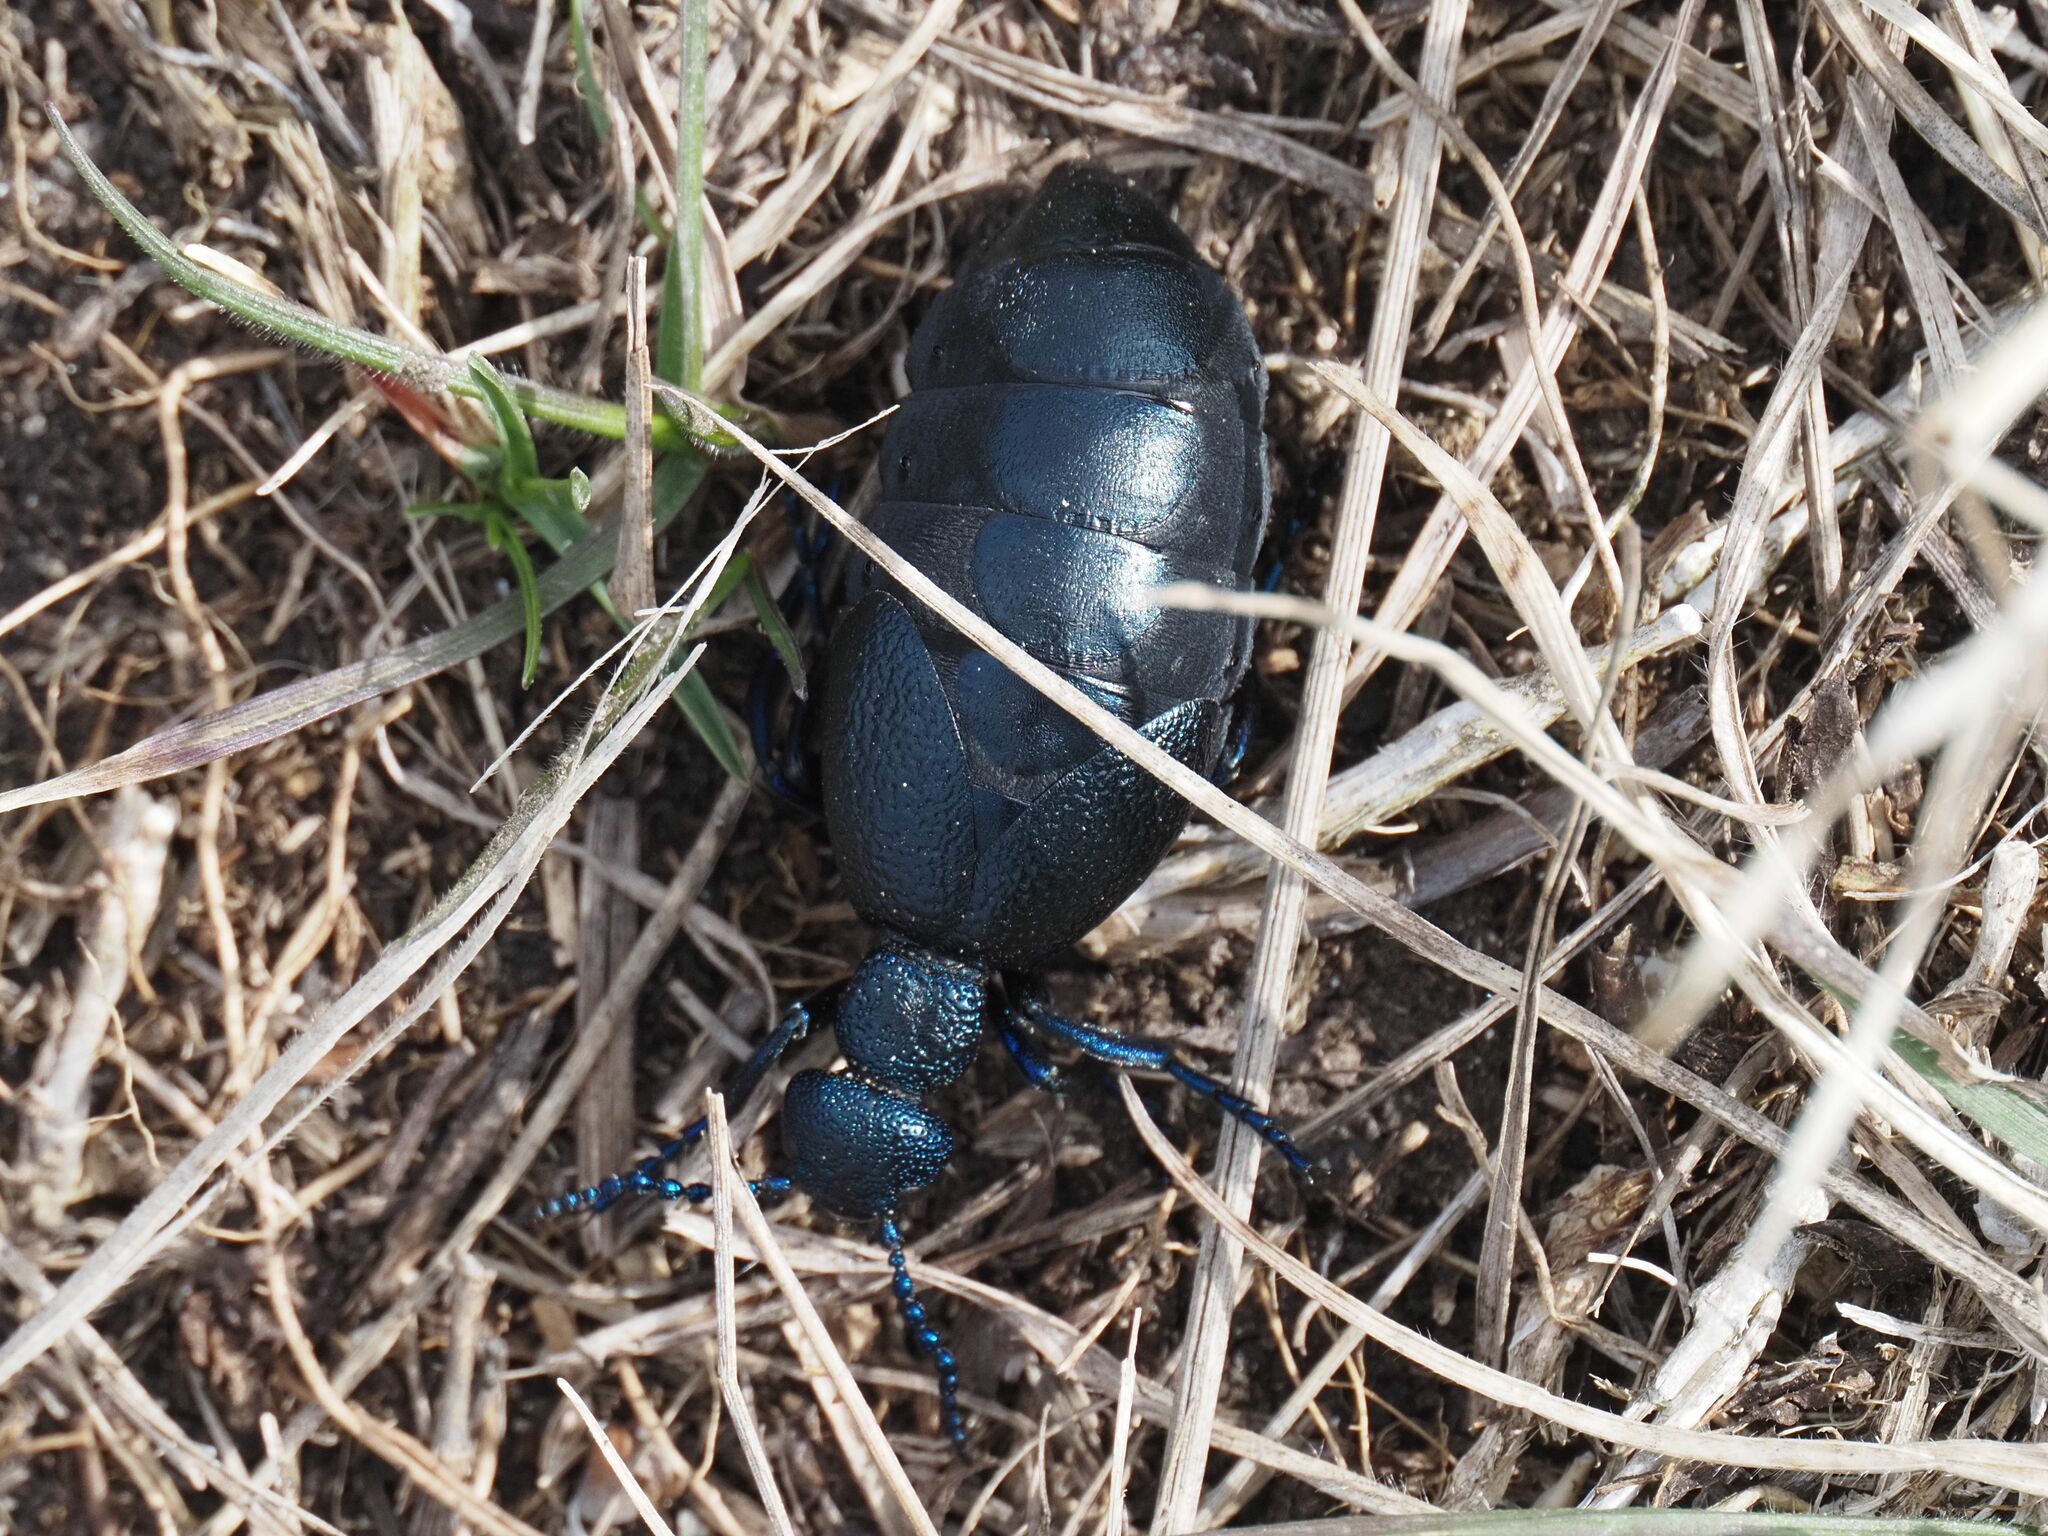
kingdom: Animalia
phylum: Arthropoda
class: Insecta
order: Coleoptera
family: Meloidae
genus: Meloe
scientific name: Meloe proscarabaeus
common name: Black oil-beetle
